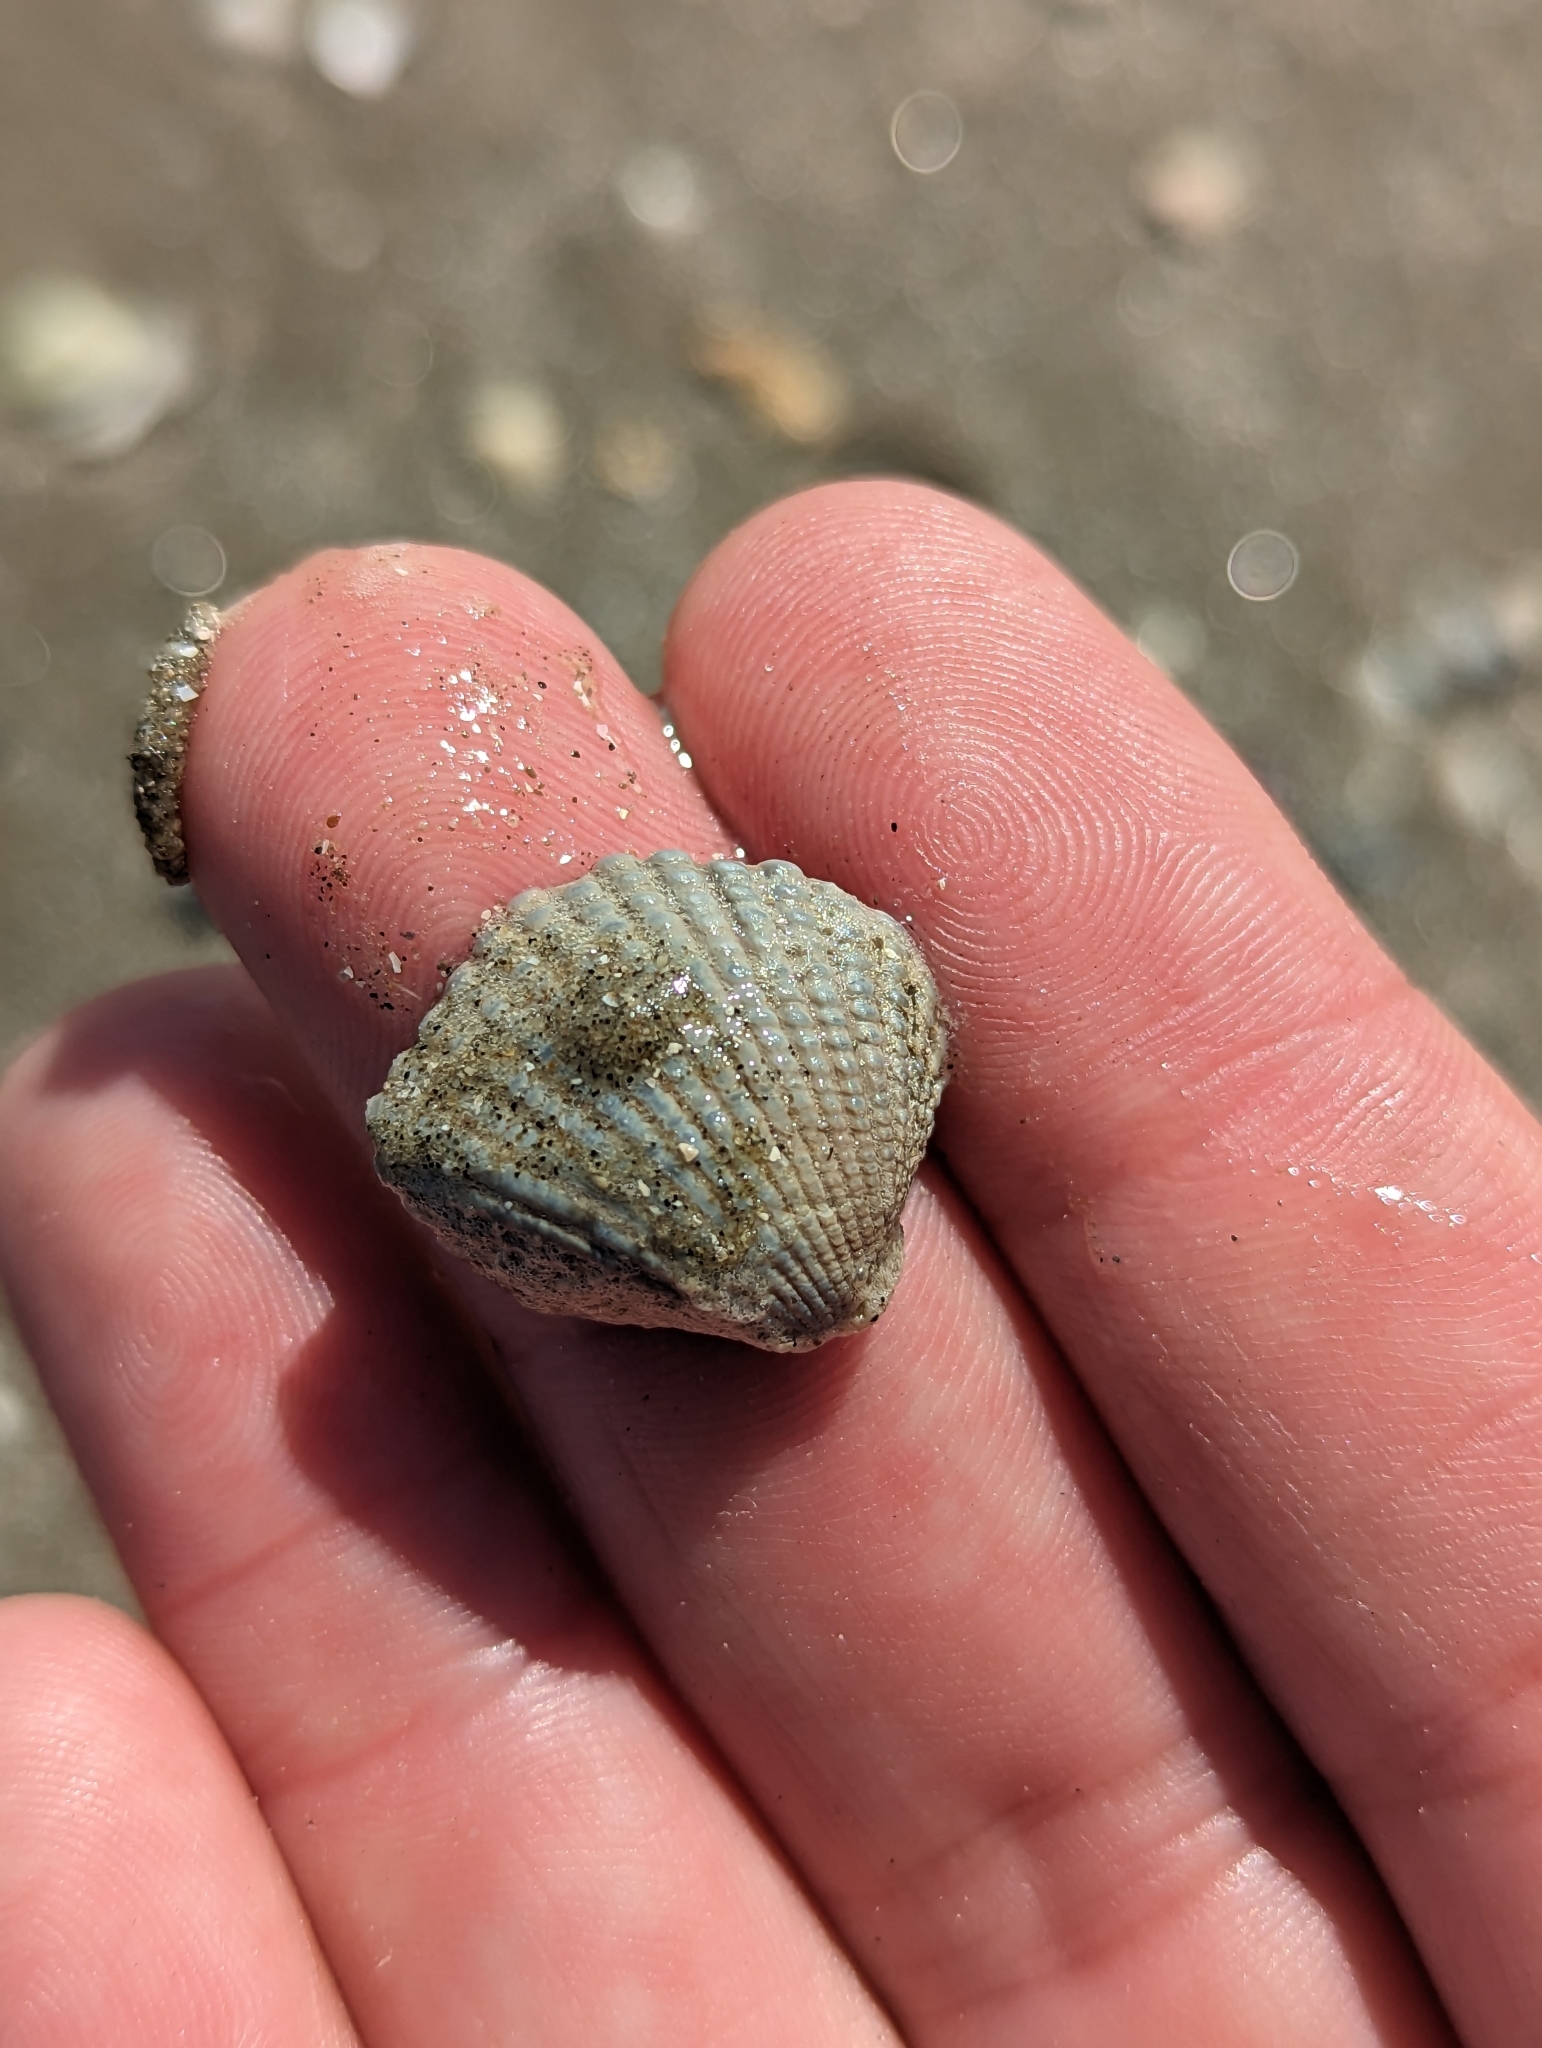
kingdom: Animalia
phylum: Mollusca
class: Bivalvia
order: Arcida
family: Arcidae
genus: Anadara
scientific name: Anadara brasiliana
